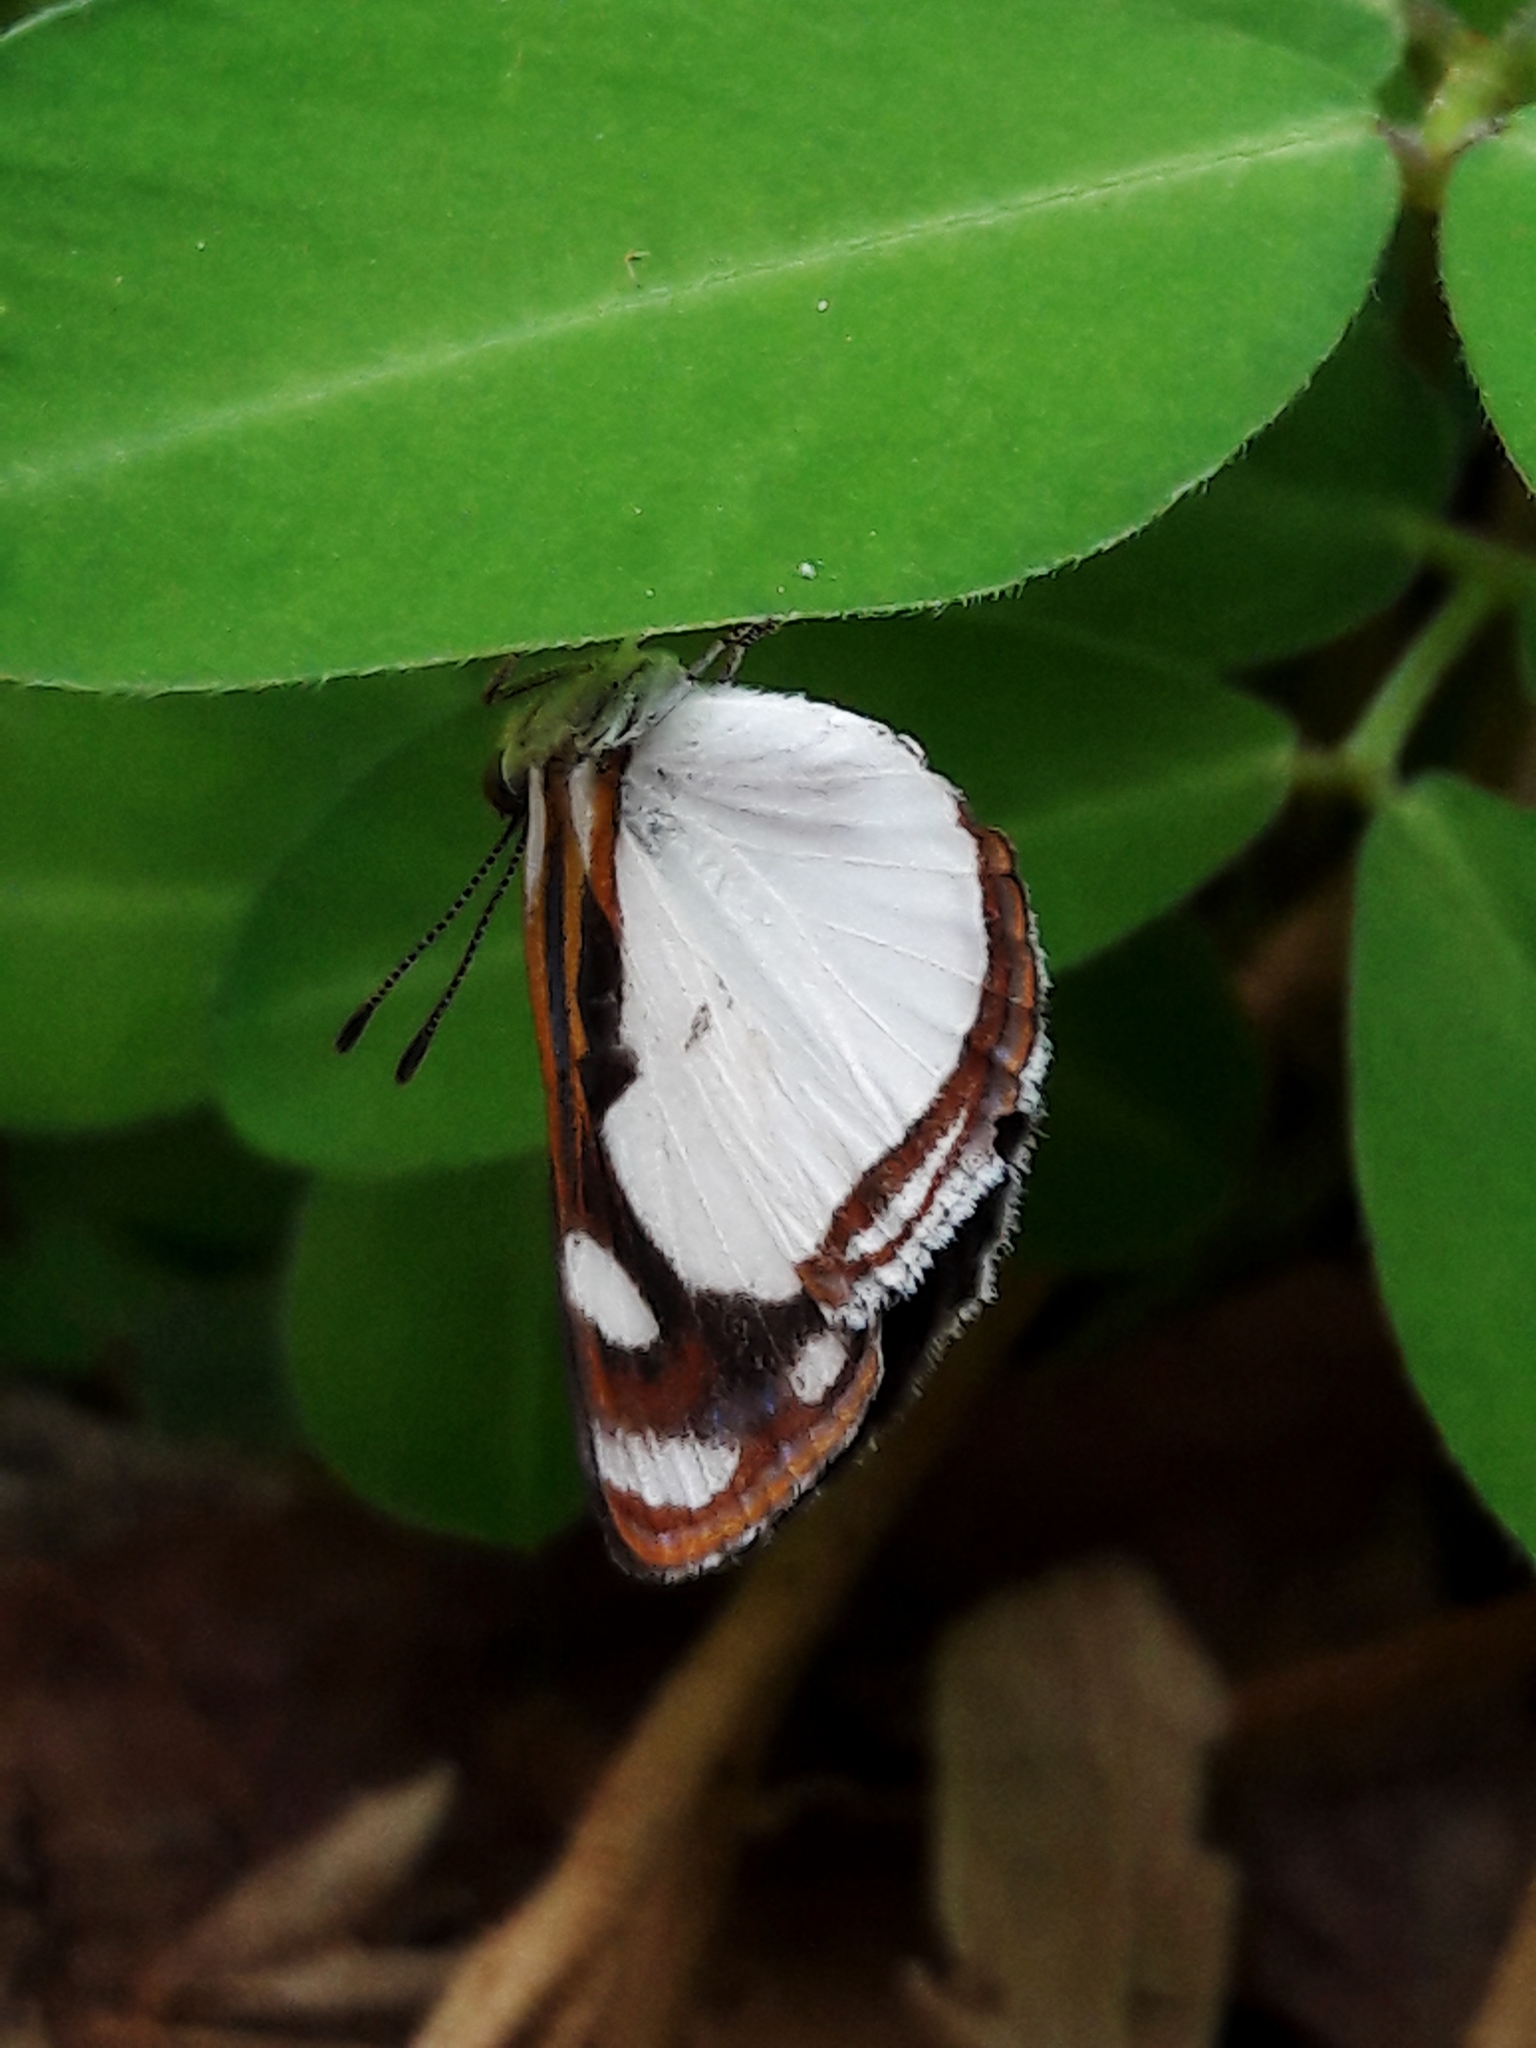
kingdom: Animalia
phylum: Arthropoda
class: Insecta
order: Lepidoptera
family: Nymphalidae
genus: Dynamine
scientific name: Dynamine agacles
